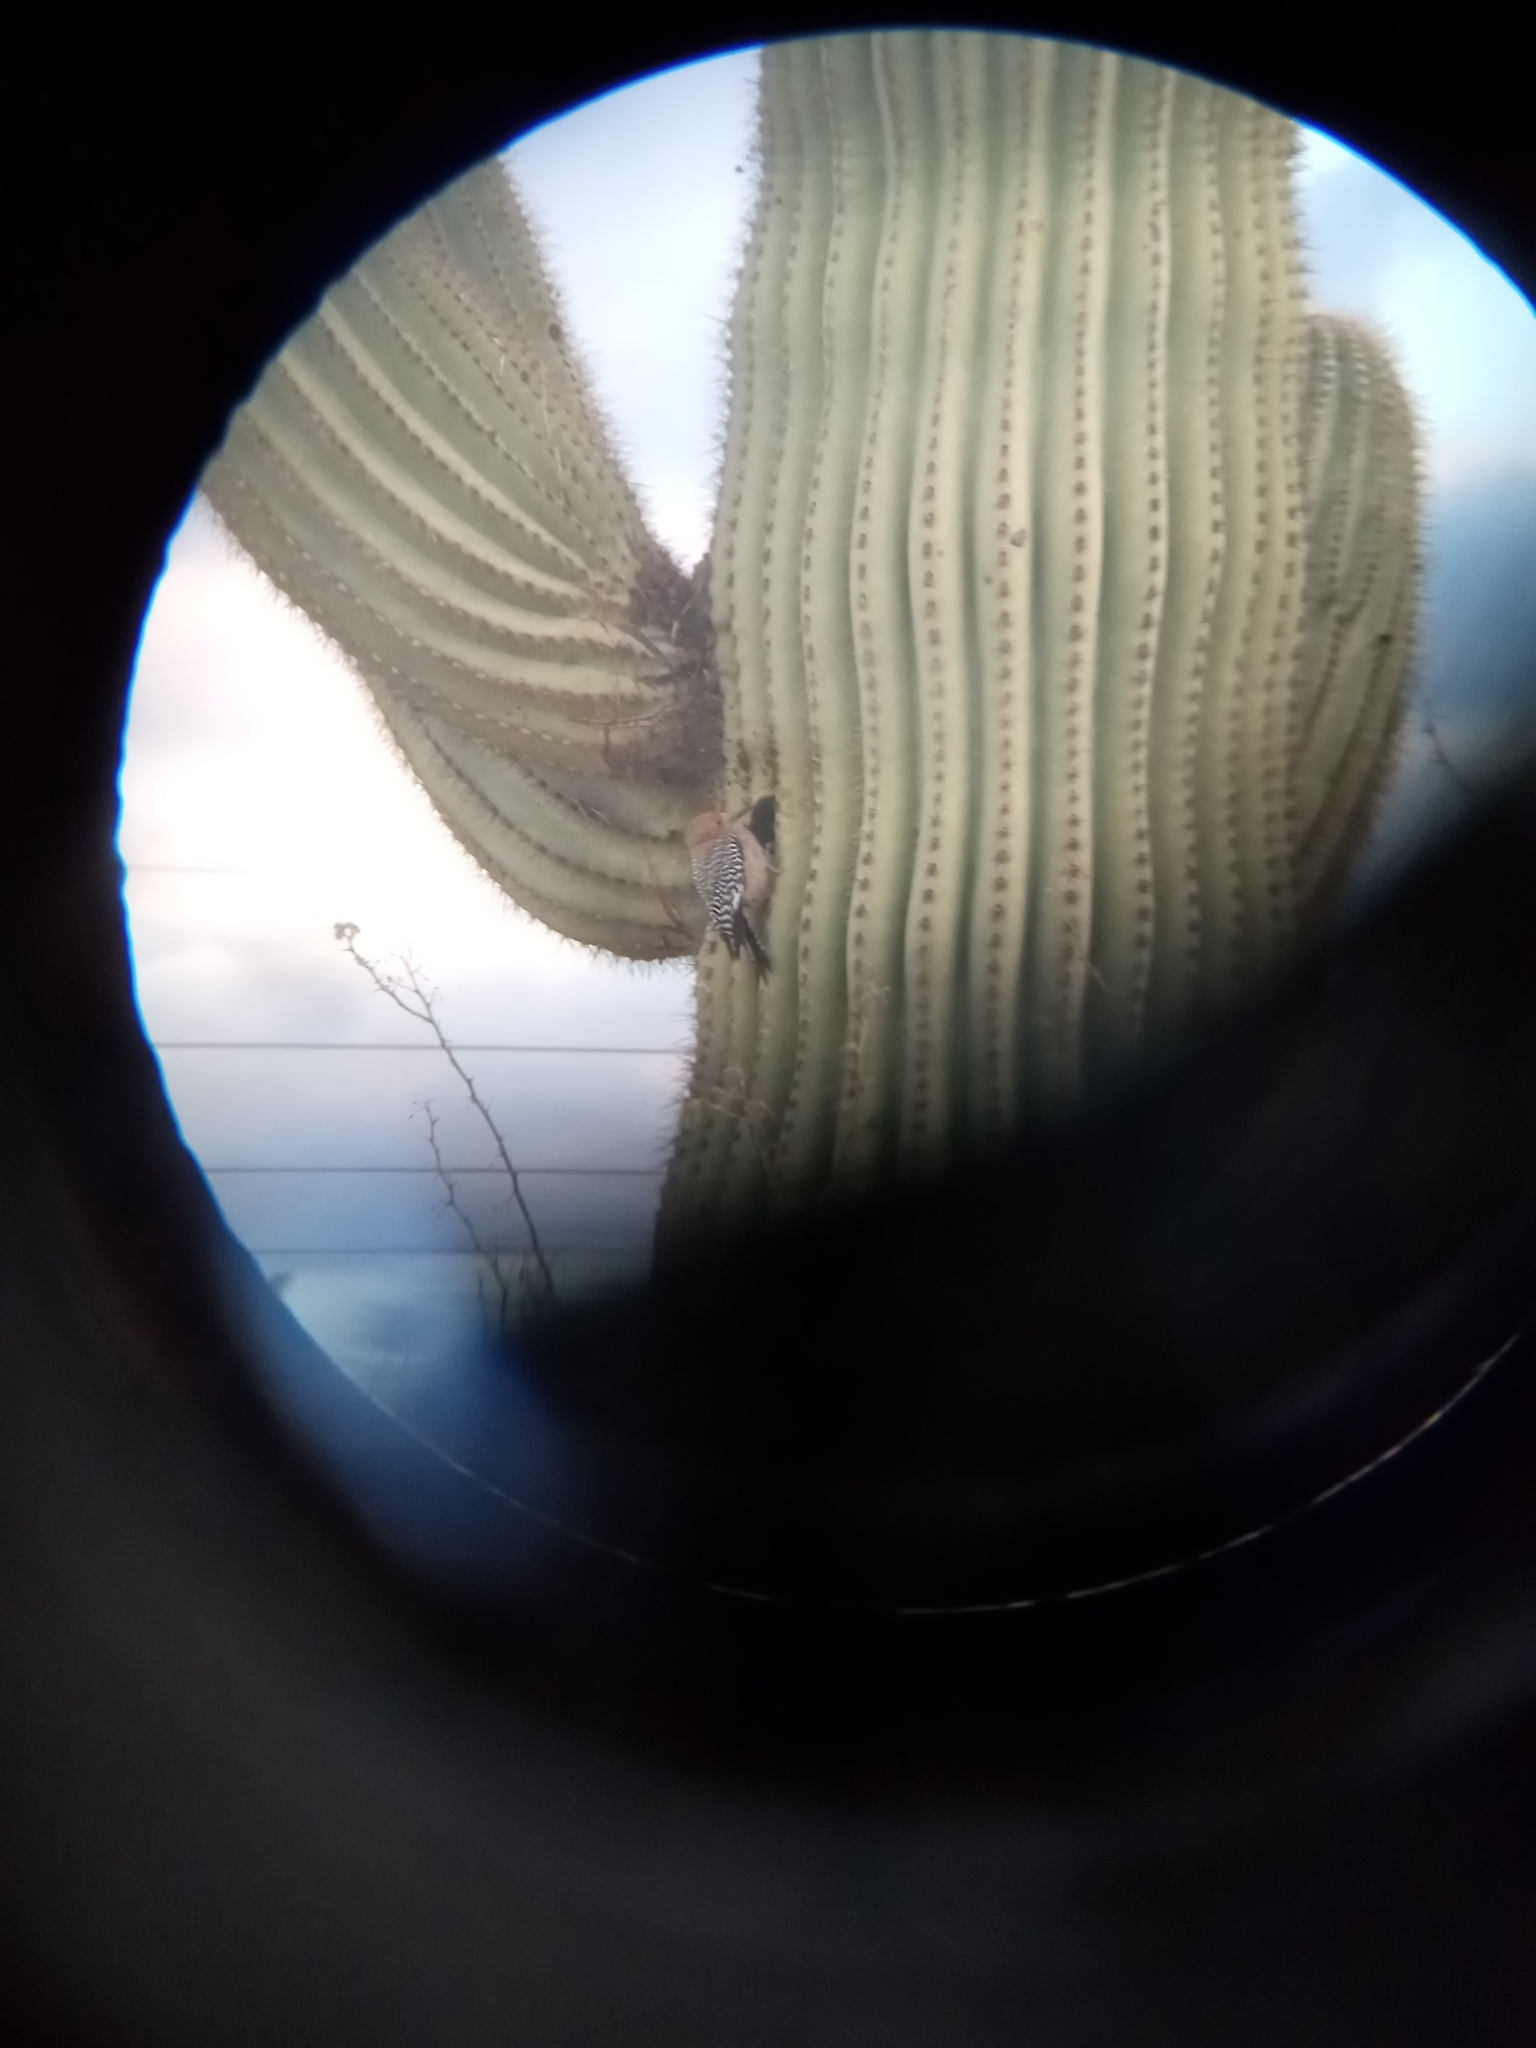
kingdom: Animalia
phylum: Chordata
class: Aves
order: Piciformes
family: Picidae
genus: Melanerpes
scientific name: Melanerpes uropygialis
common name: Gila woodpecker
